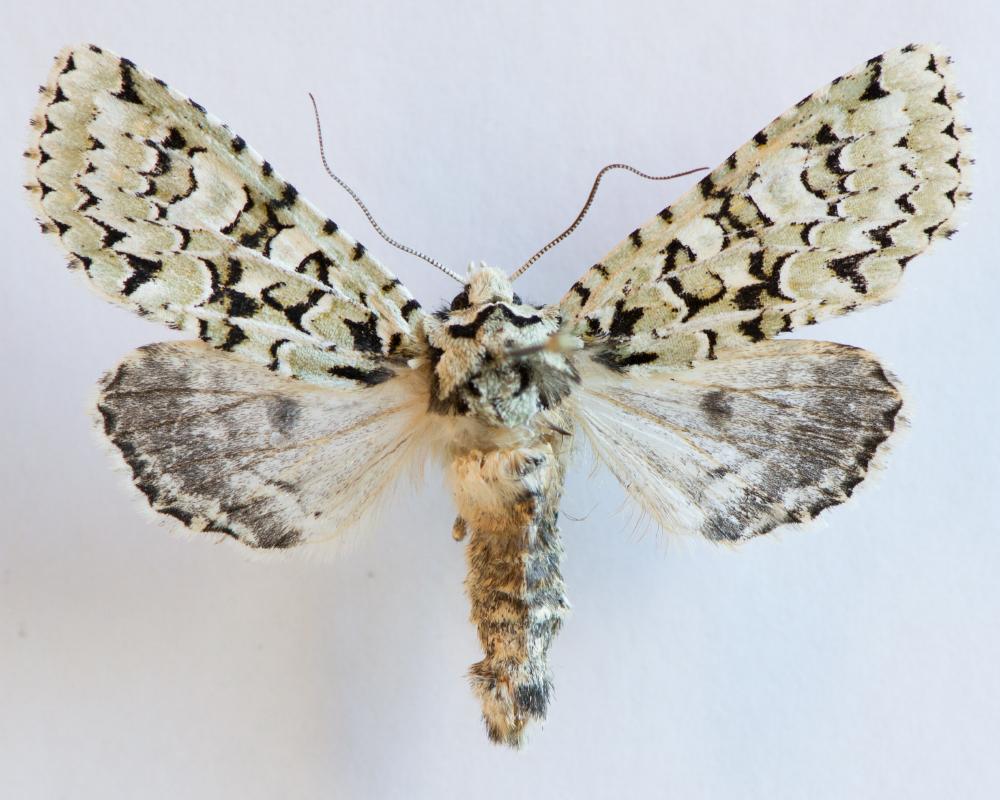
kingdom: Animalia
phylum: Arthropoda
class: Insecta
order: Lepidoptera
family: Noctuidae
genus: Griposia
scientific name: Griposia aprilina
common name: Merveille du jour
